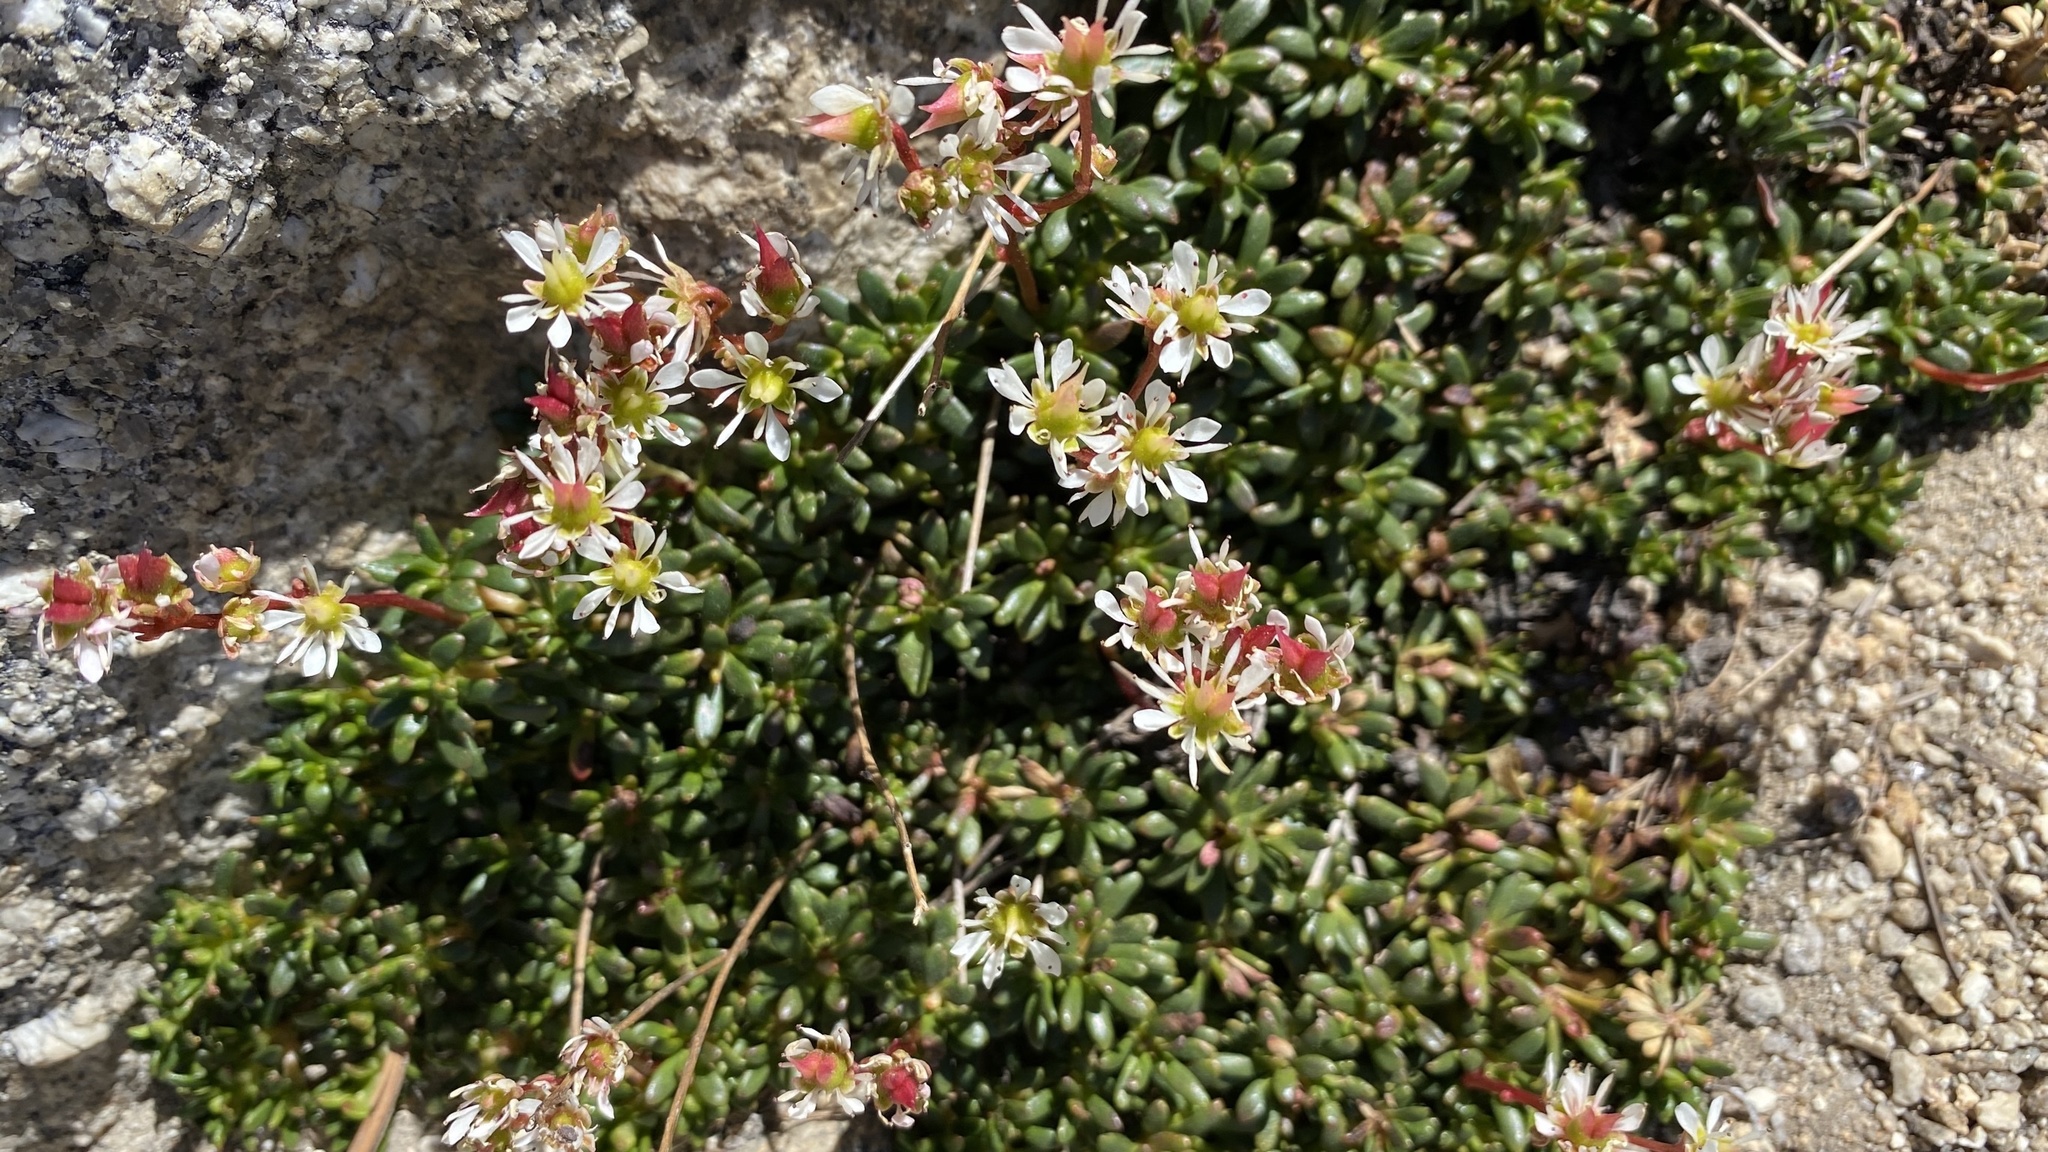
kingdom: Plantae
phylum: Tracheophyta
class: Magnoliopsida
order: Saxifragales
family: Saxifragaceae
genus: Micranthes
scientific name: Micranthes tolmiei
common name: Tolmie's saxifrage
